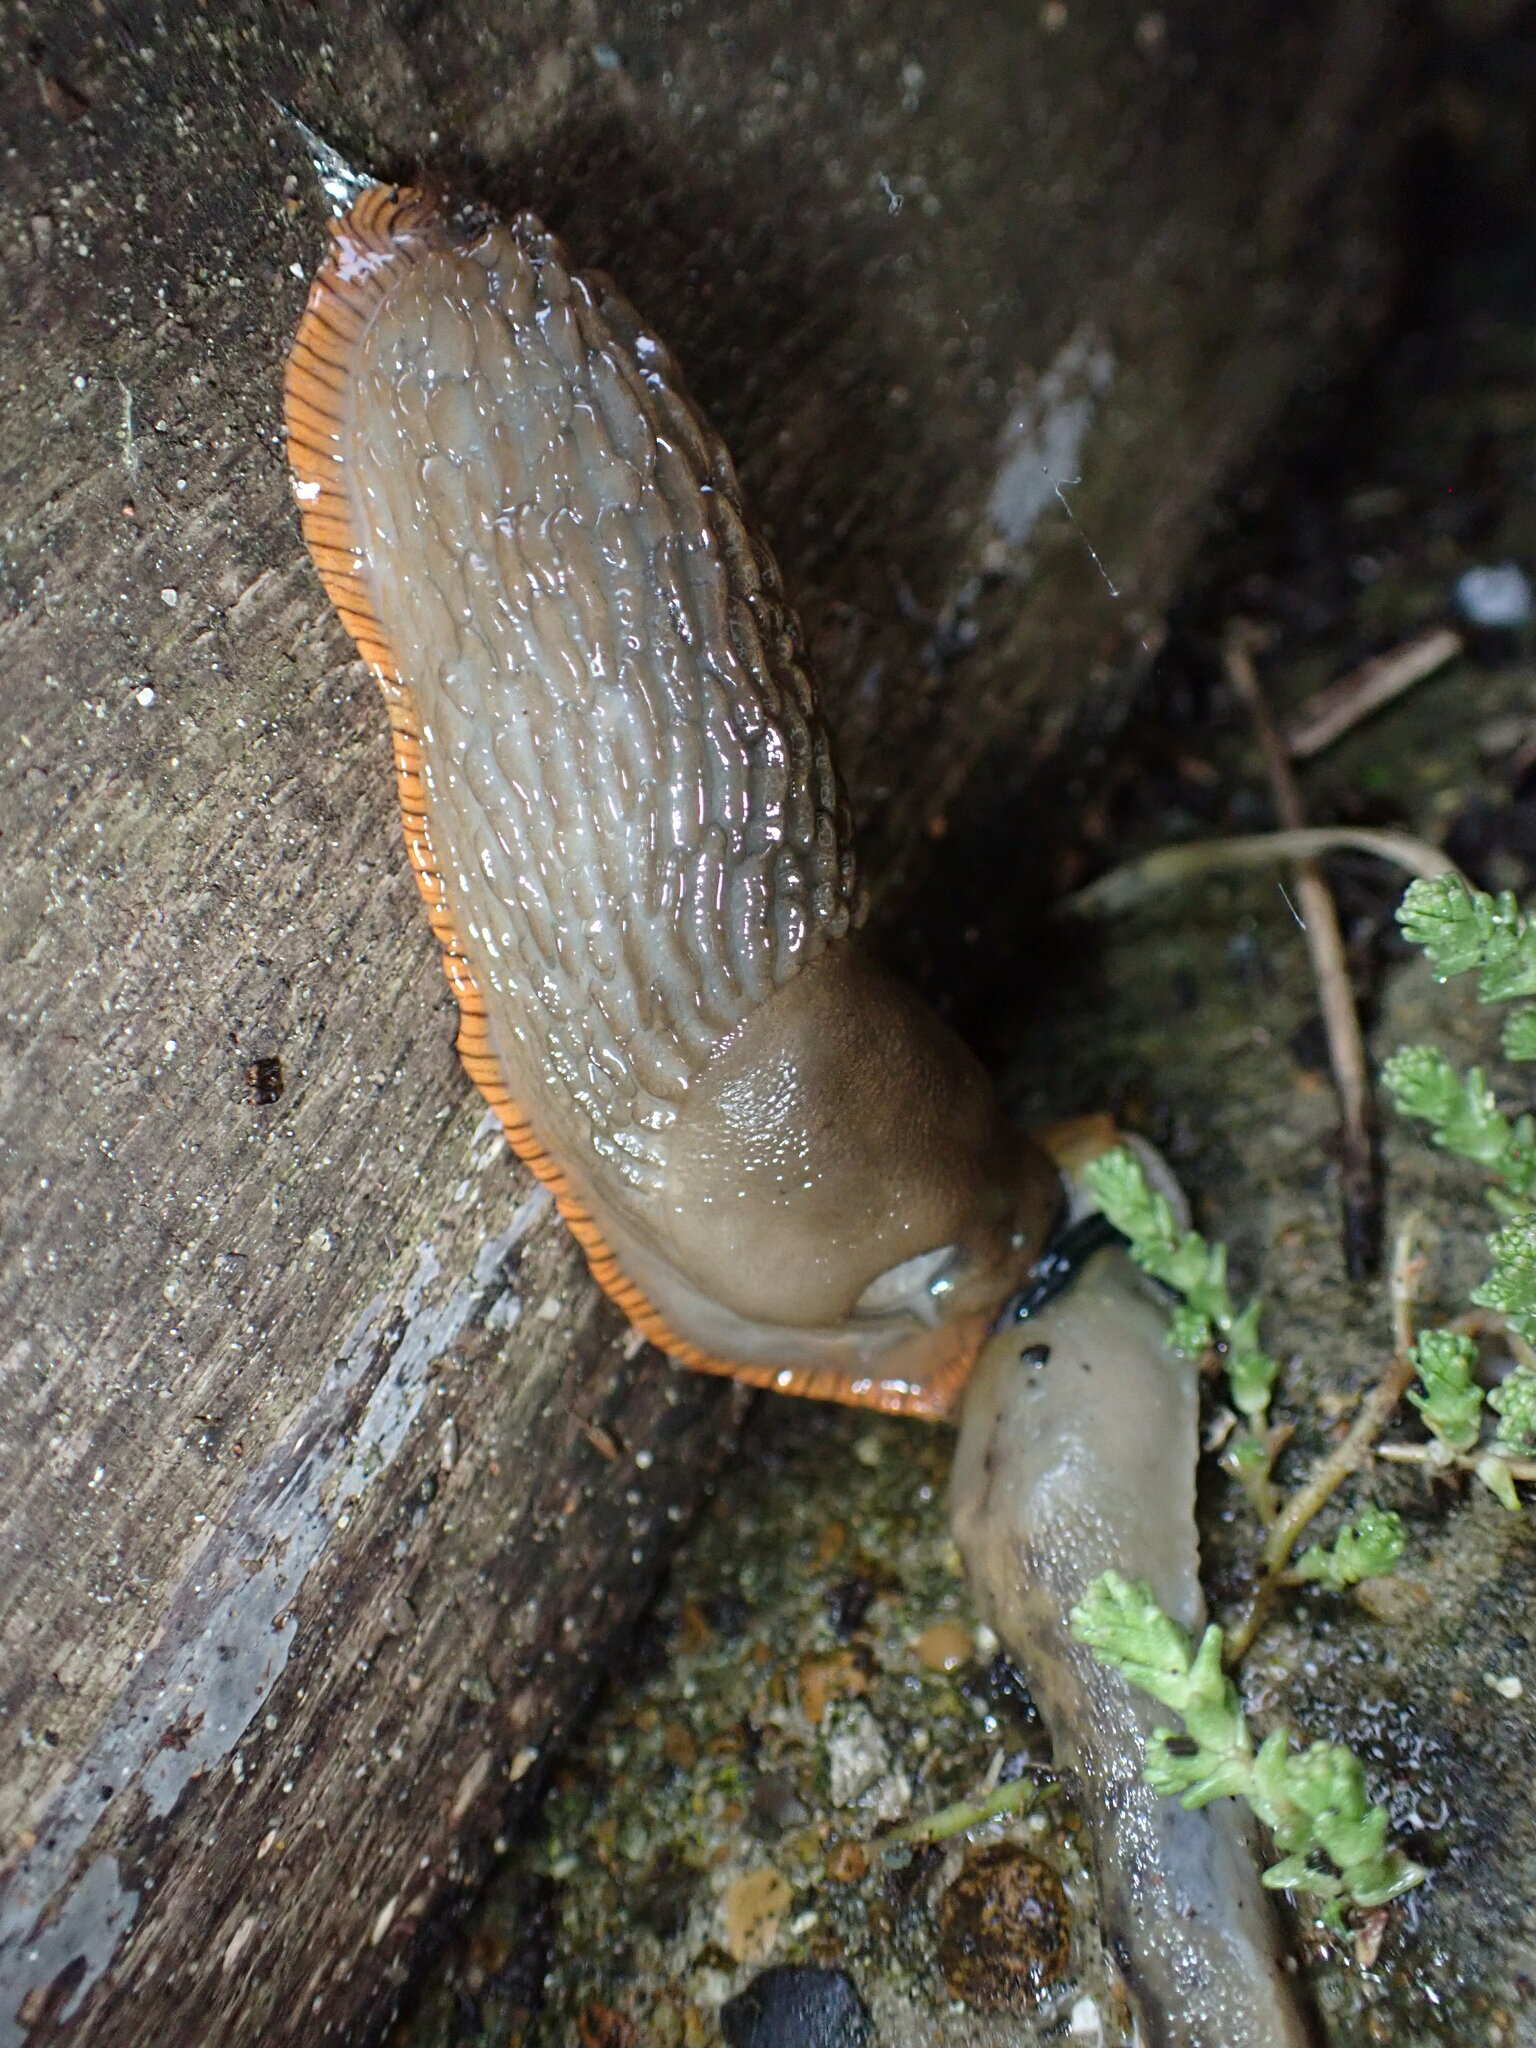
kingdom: Animalia
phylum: Mollusca
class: Gastropoda
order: Stylommatophora
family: Arionidae
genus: Arion
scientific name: Arion rufus
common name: Chocolate arion
